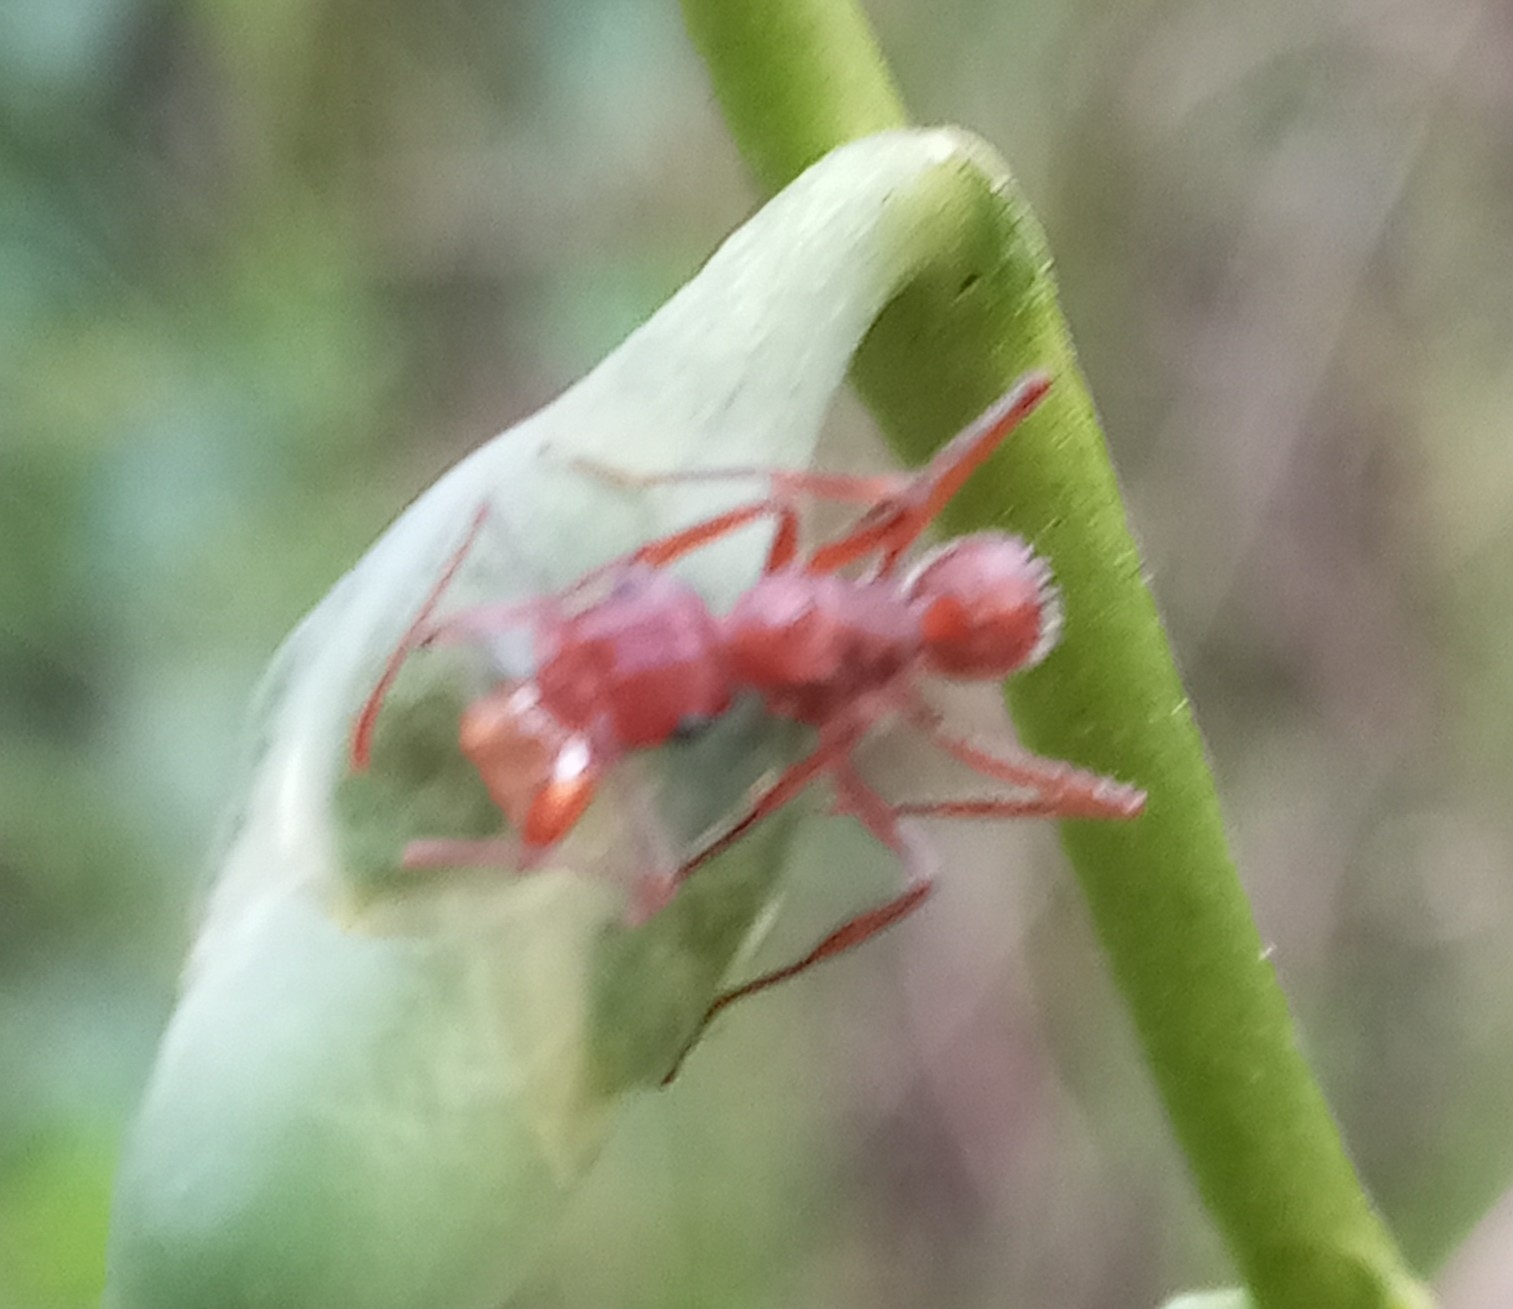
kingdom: Animalia
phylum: Arthropoda
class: Insecta
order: Hymenoptera
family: Formicidae
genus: Ectatomma
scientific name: Ectatomma tuberculatum
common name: Ant
